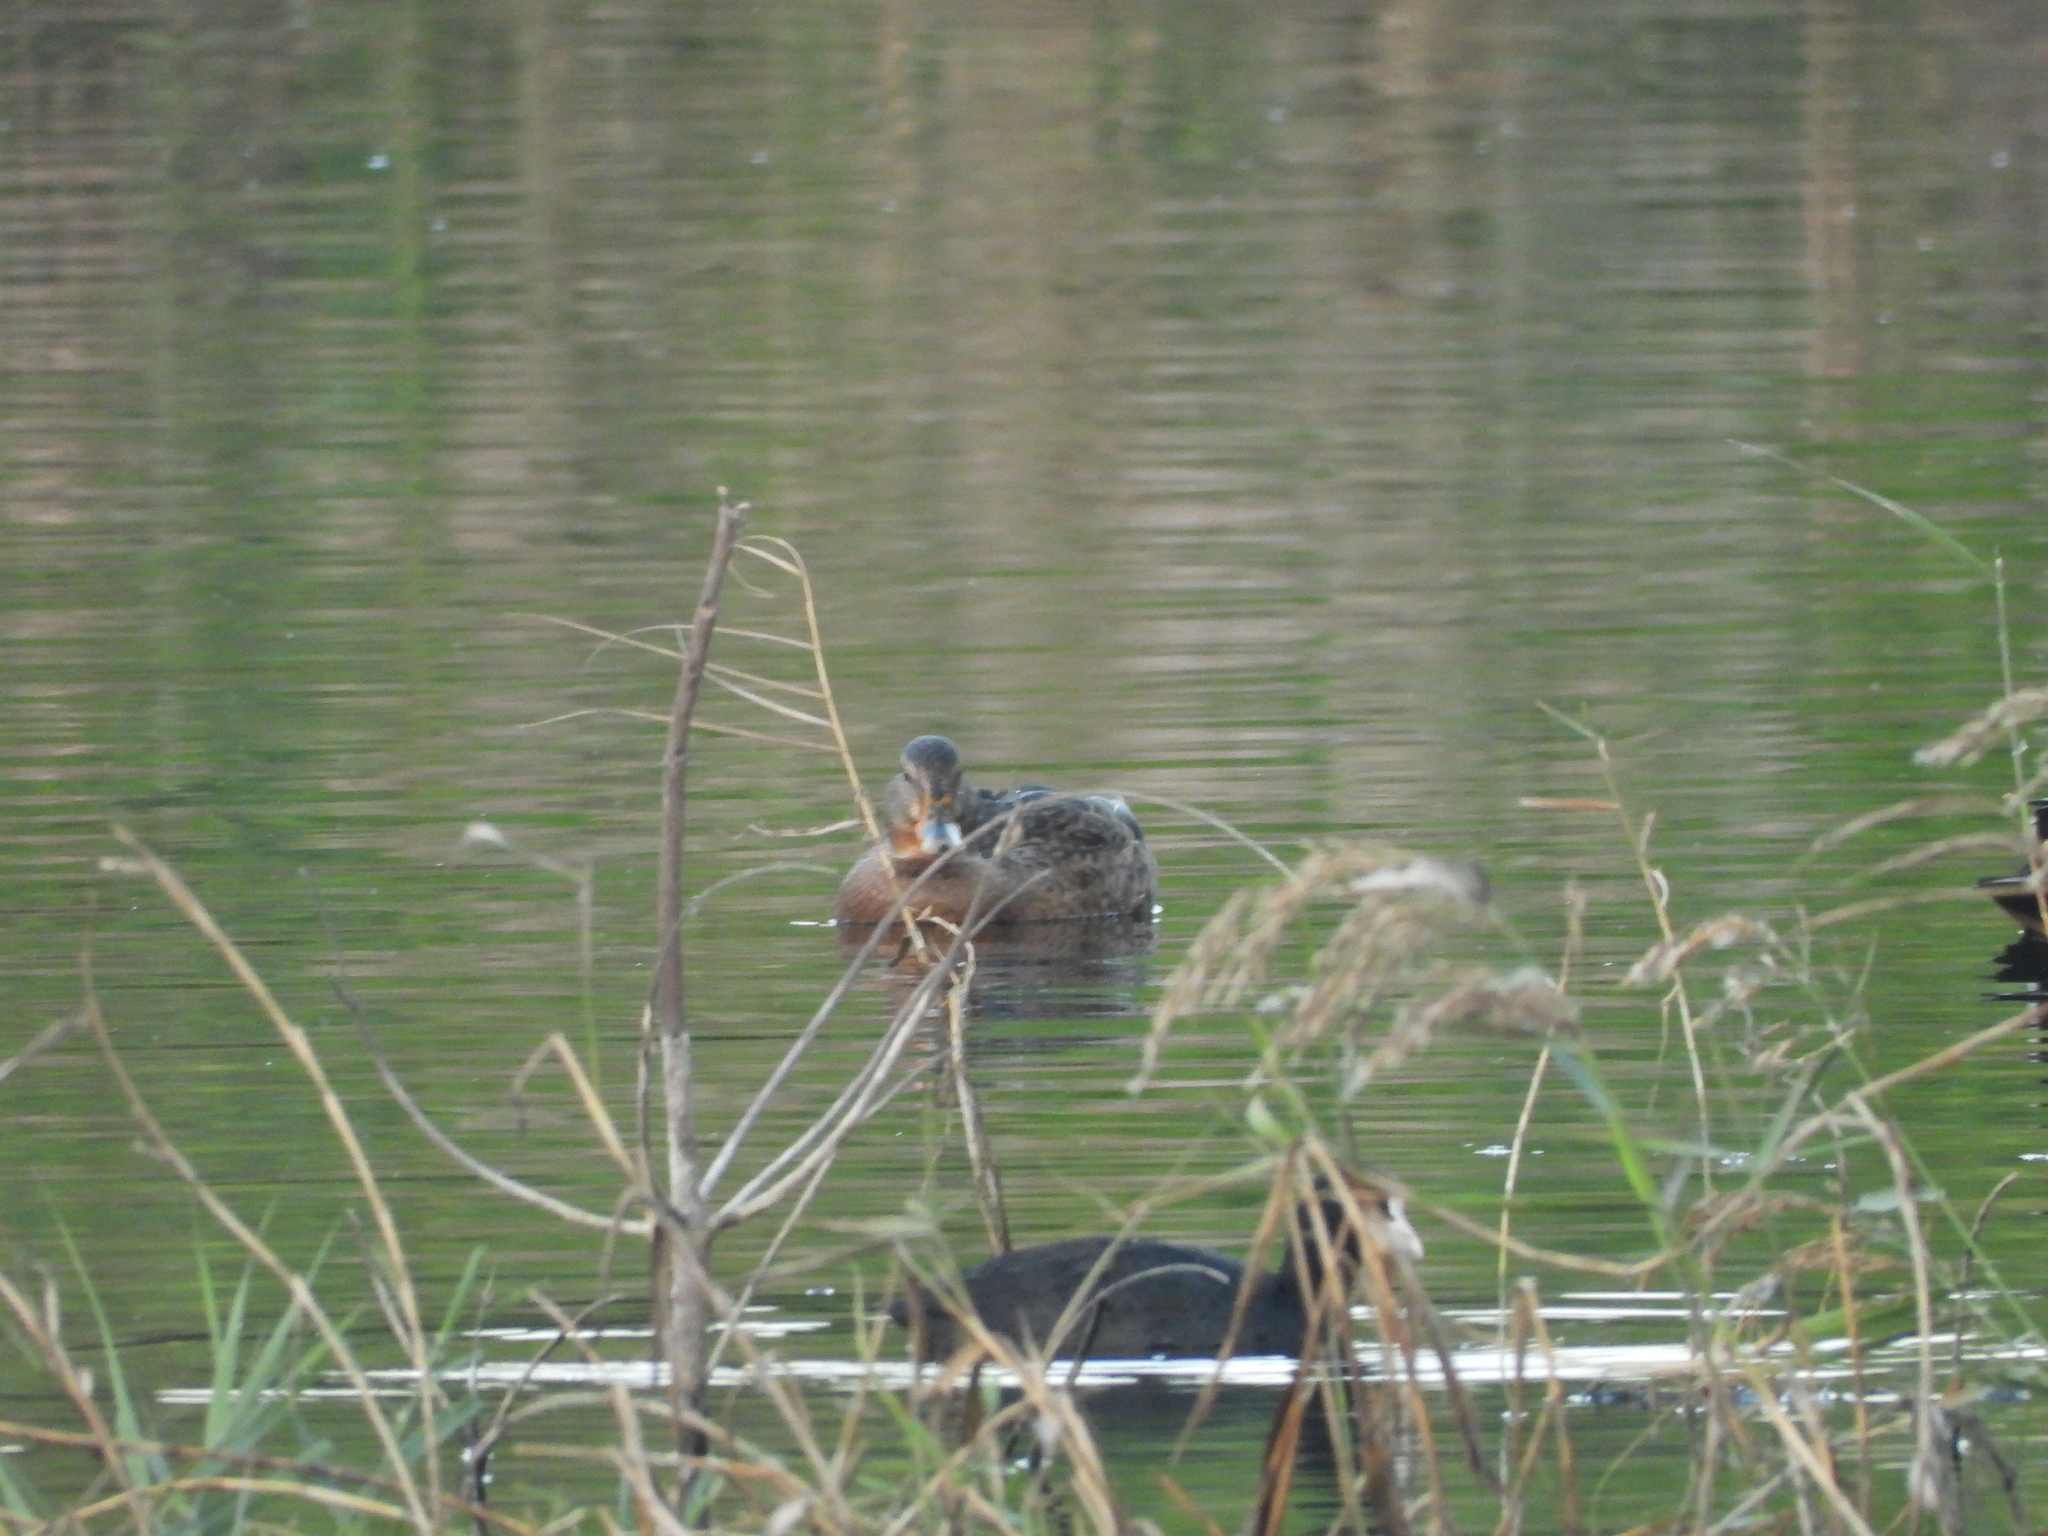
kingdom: Animalia
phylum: Chordata
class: Aves
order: Anseriformes
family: Anatidae
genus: Anas
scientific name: Anas platyrhynchos
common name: Mallard
